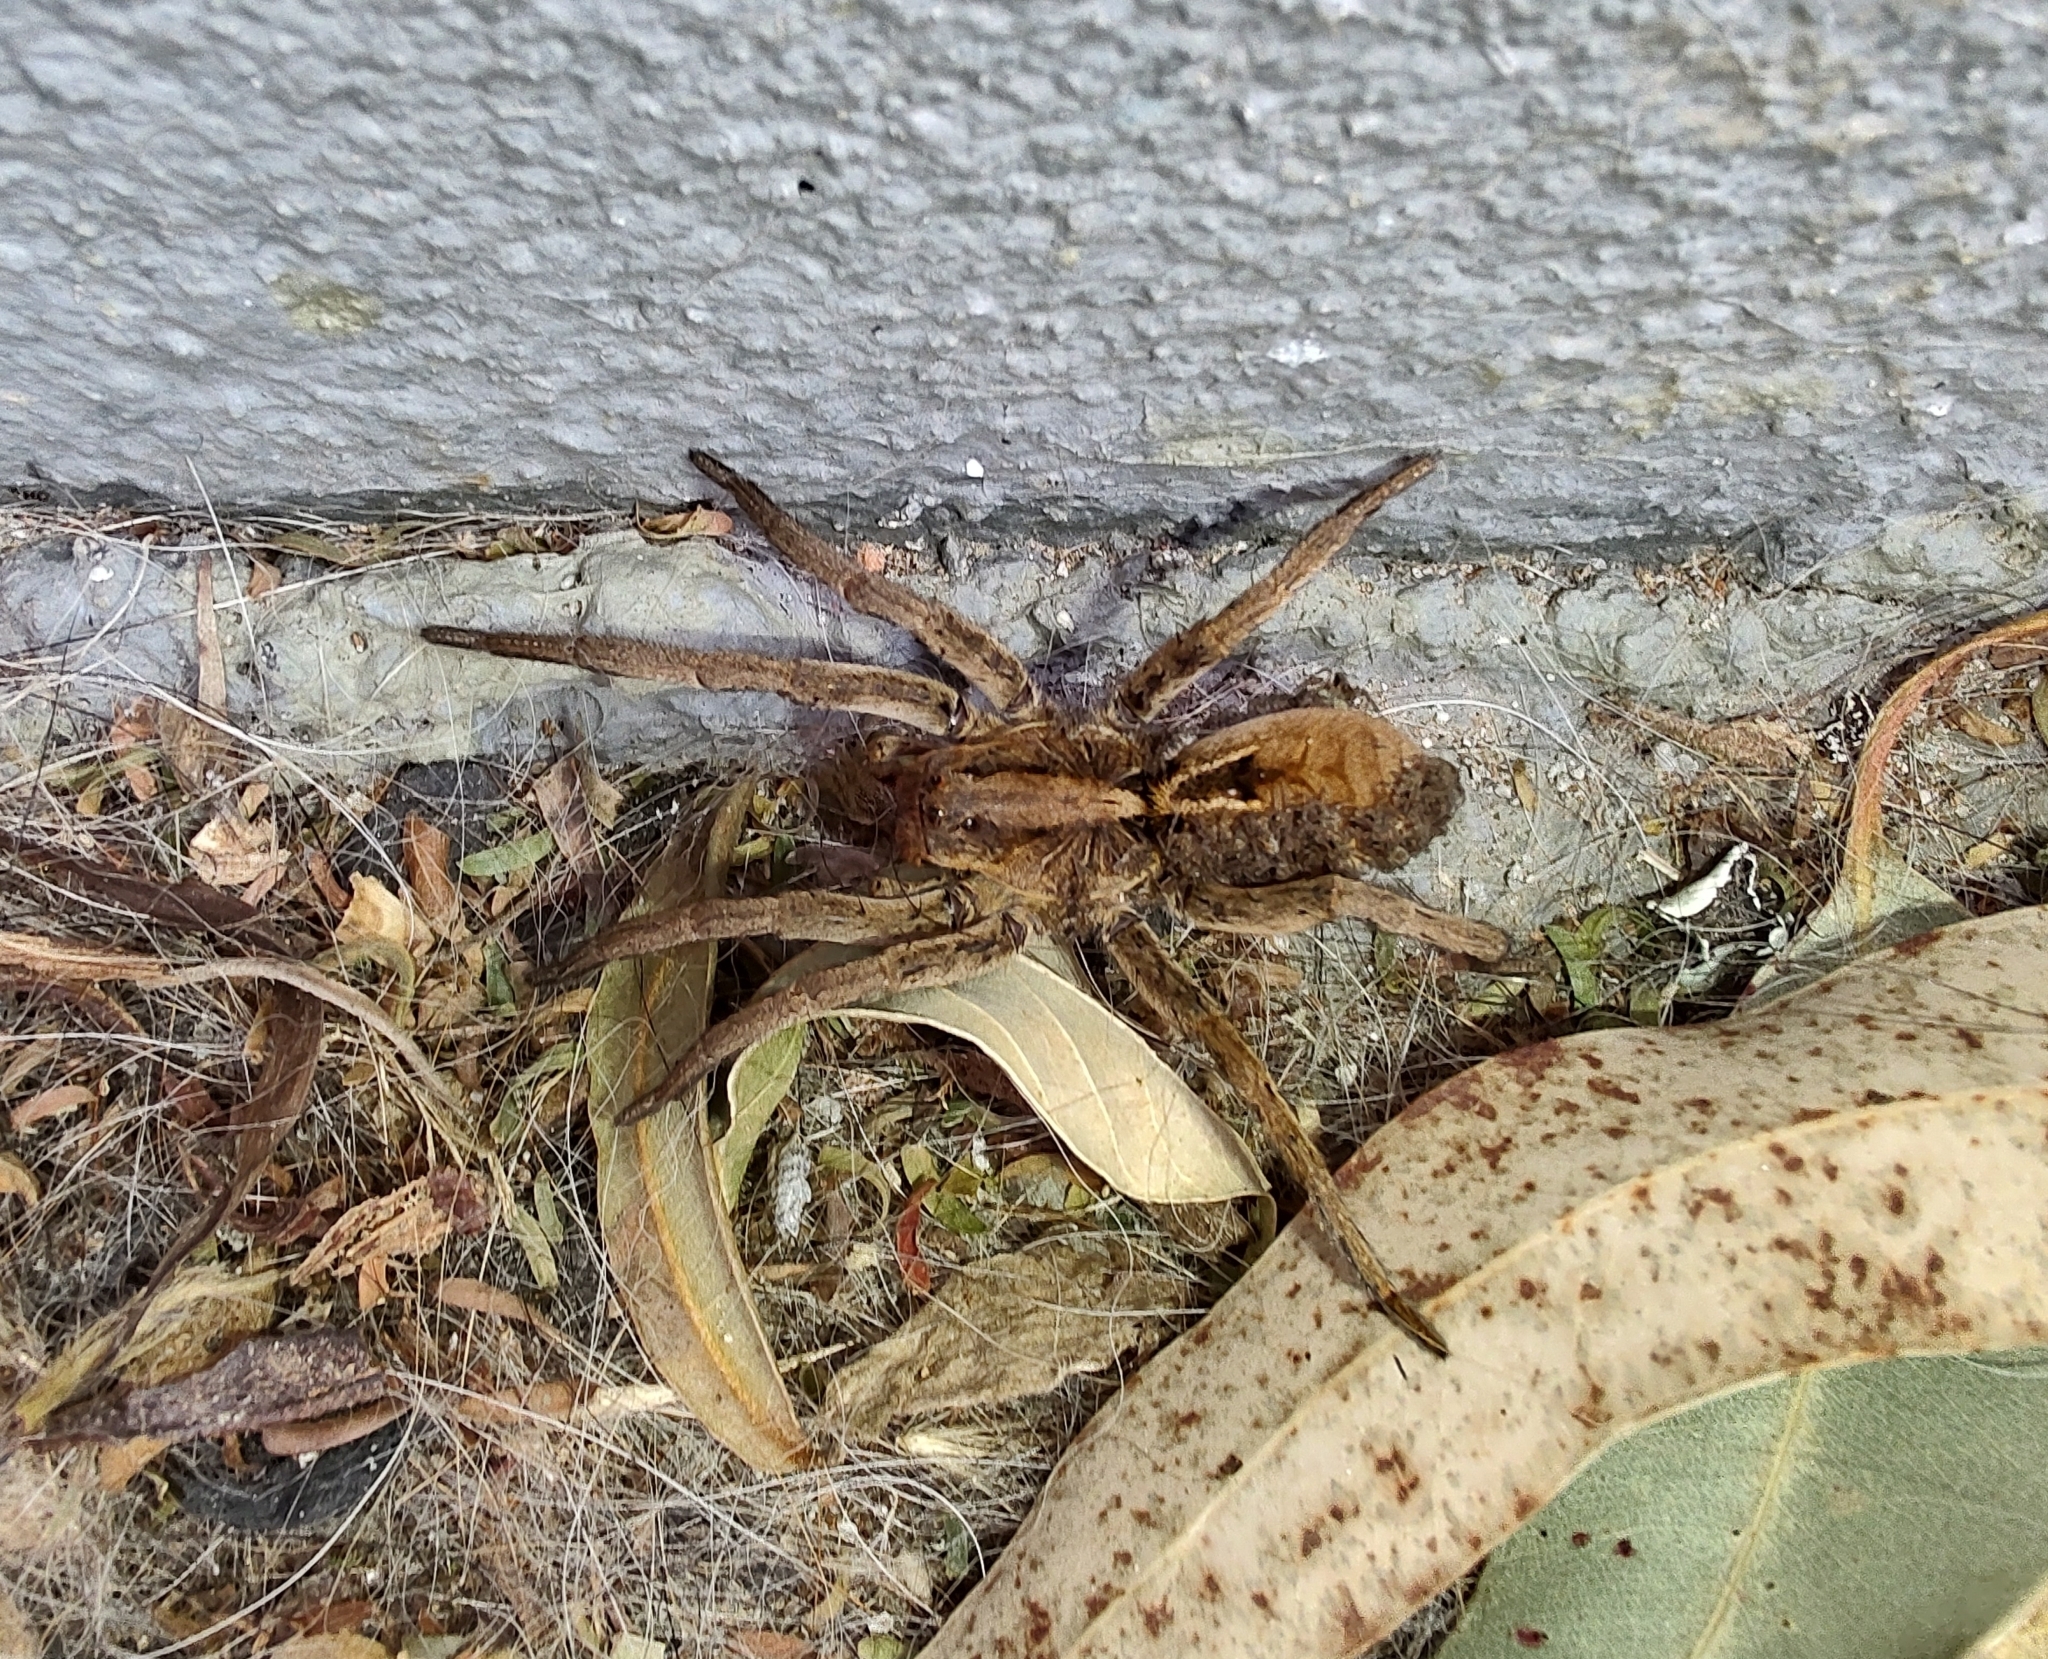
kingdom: Animalia
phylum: Arthropoda
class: Arachnida
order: Araneae
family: Lycosidae
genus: Lycosa
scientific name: Lycosa erythrognatha
